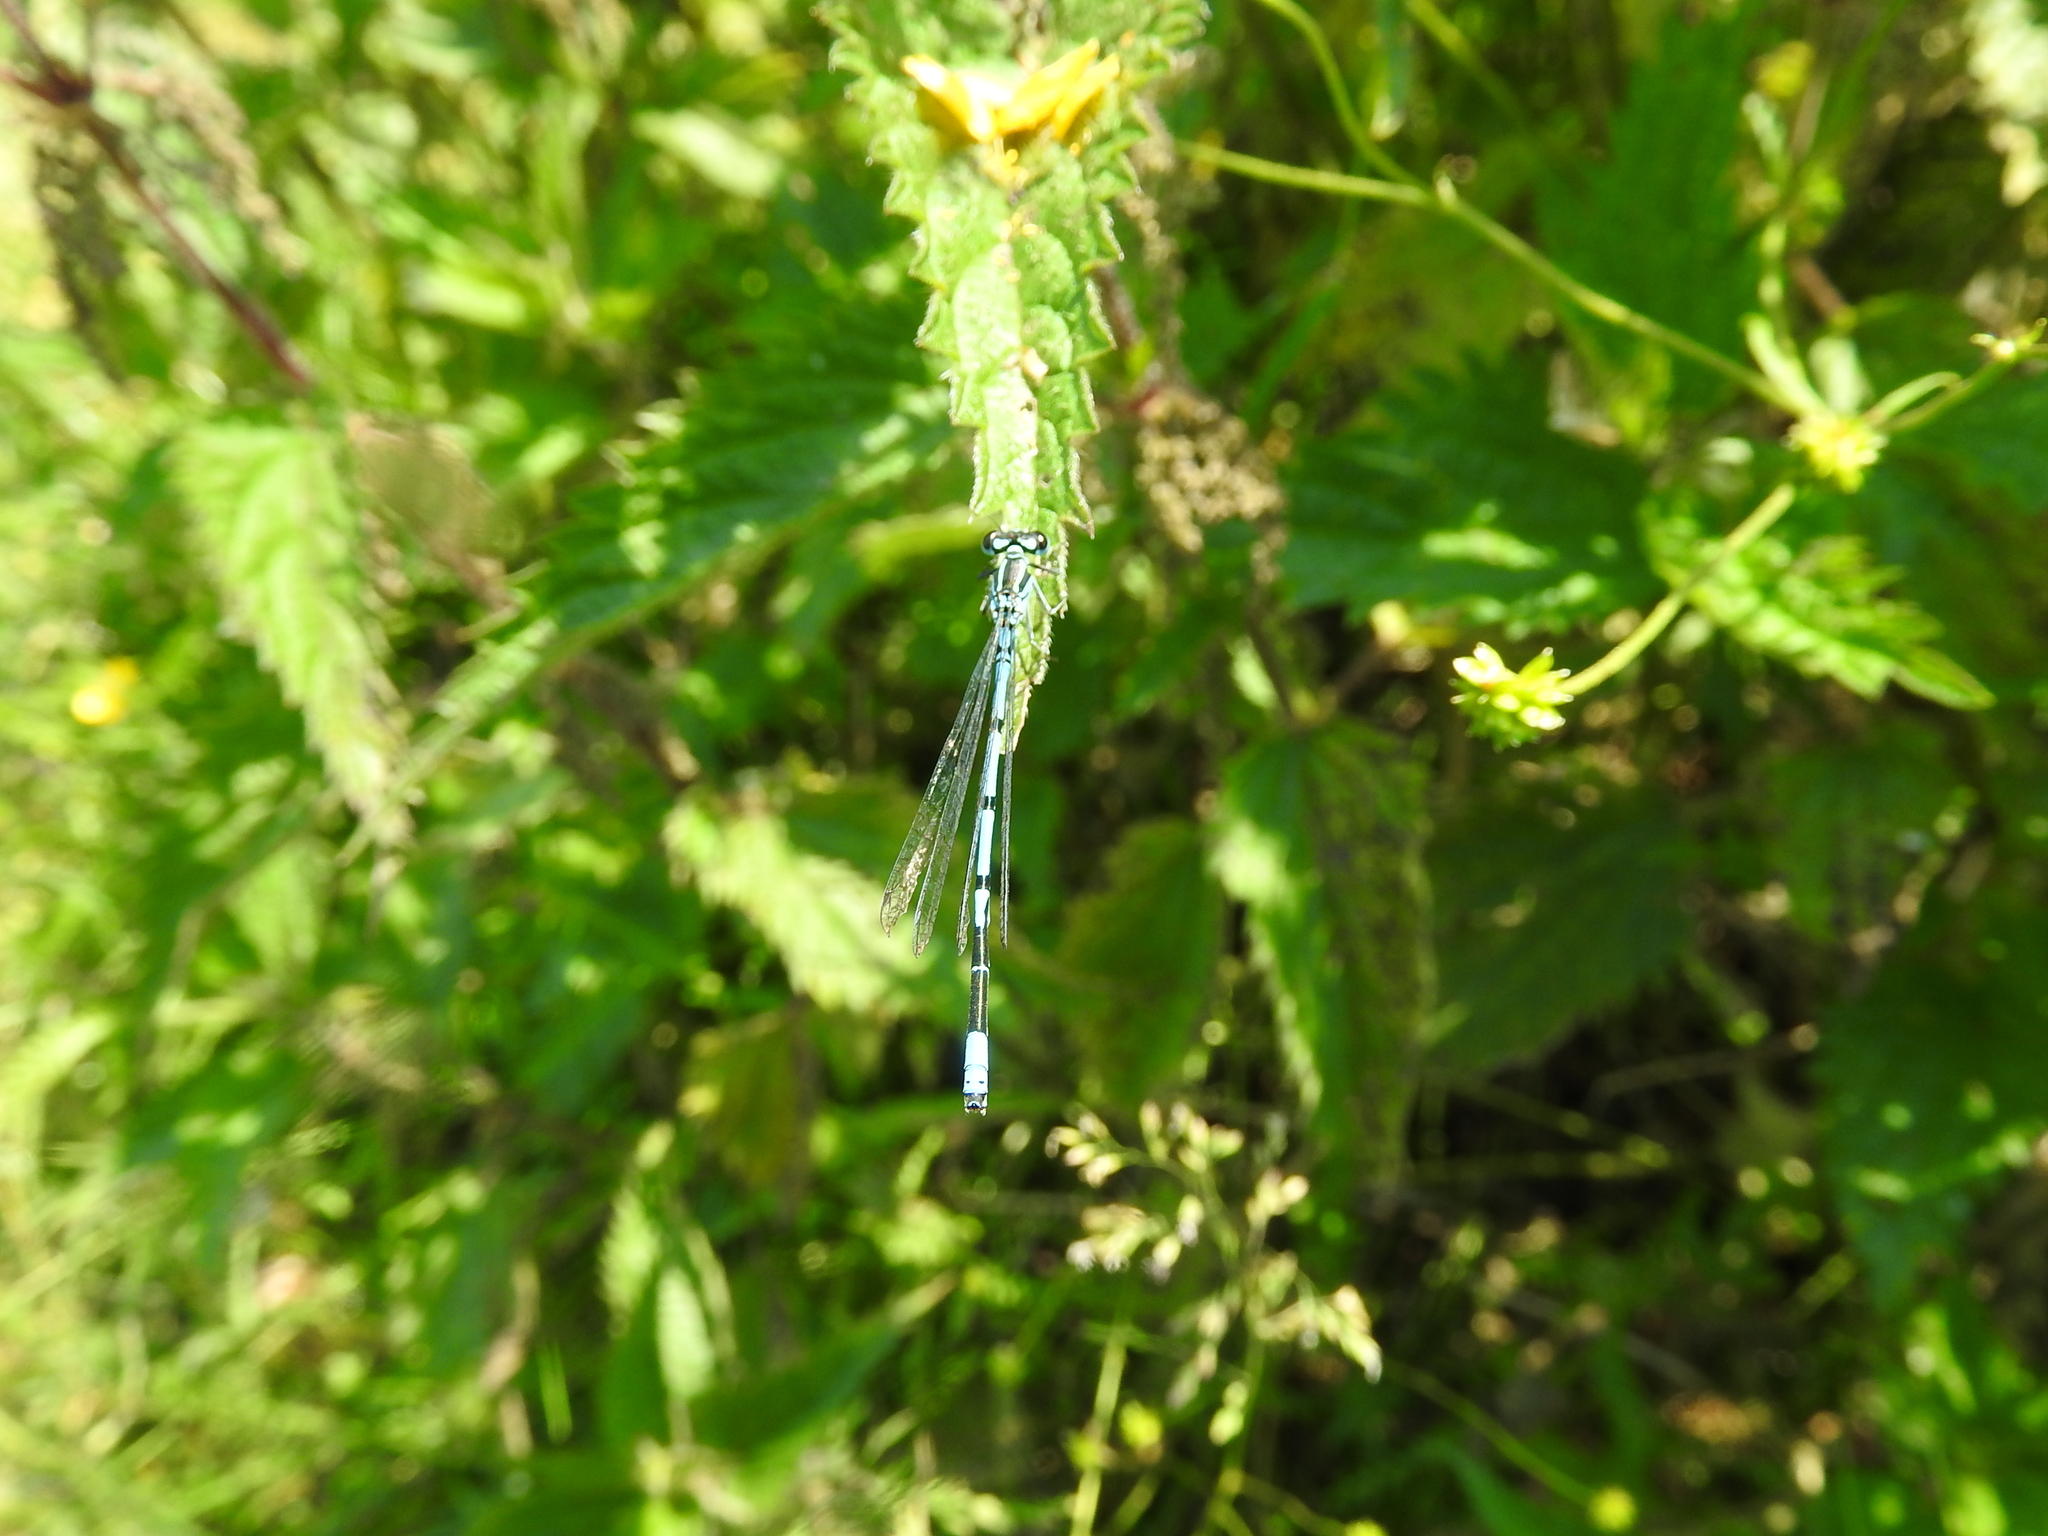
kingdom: Animalia
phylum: Arthropoda
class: Insecta
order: Odonata
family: Coenagrionidae
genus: Coenagrion
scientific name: Coenagrion puella
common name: Azure damselfly
